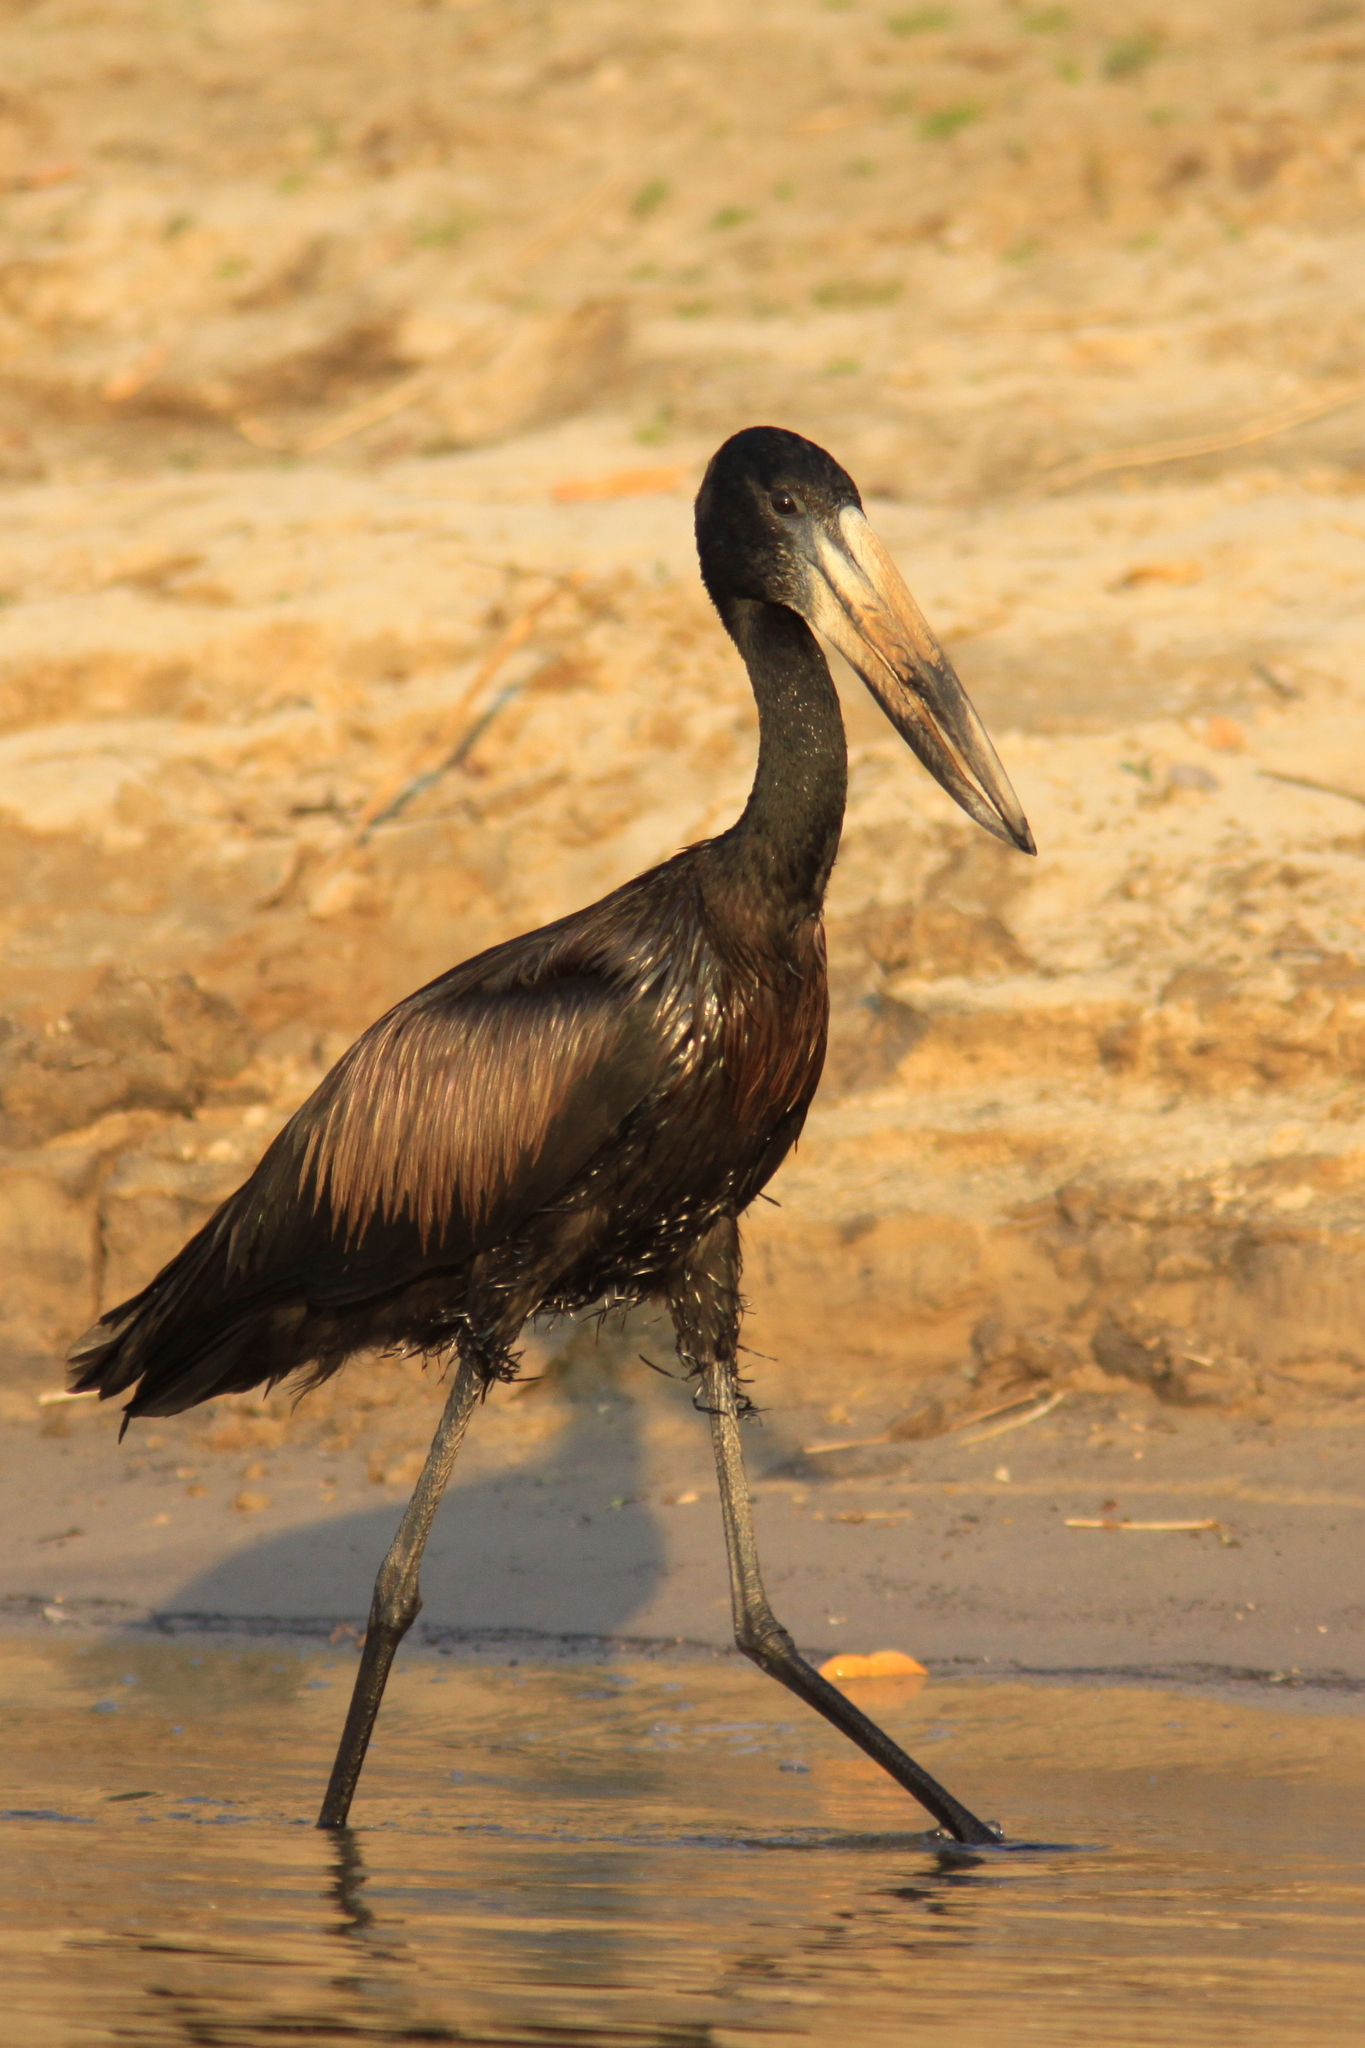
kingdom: Animalia
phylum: Chordata
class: Aves
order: Ciconiiformes
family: Ciconiidae
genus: Anastomus
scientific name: Anastomus lamelligerus
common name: African openbill
